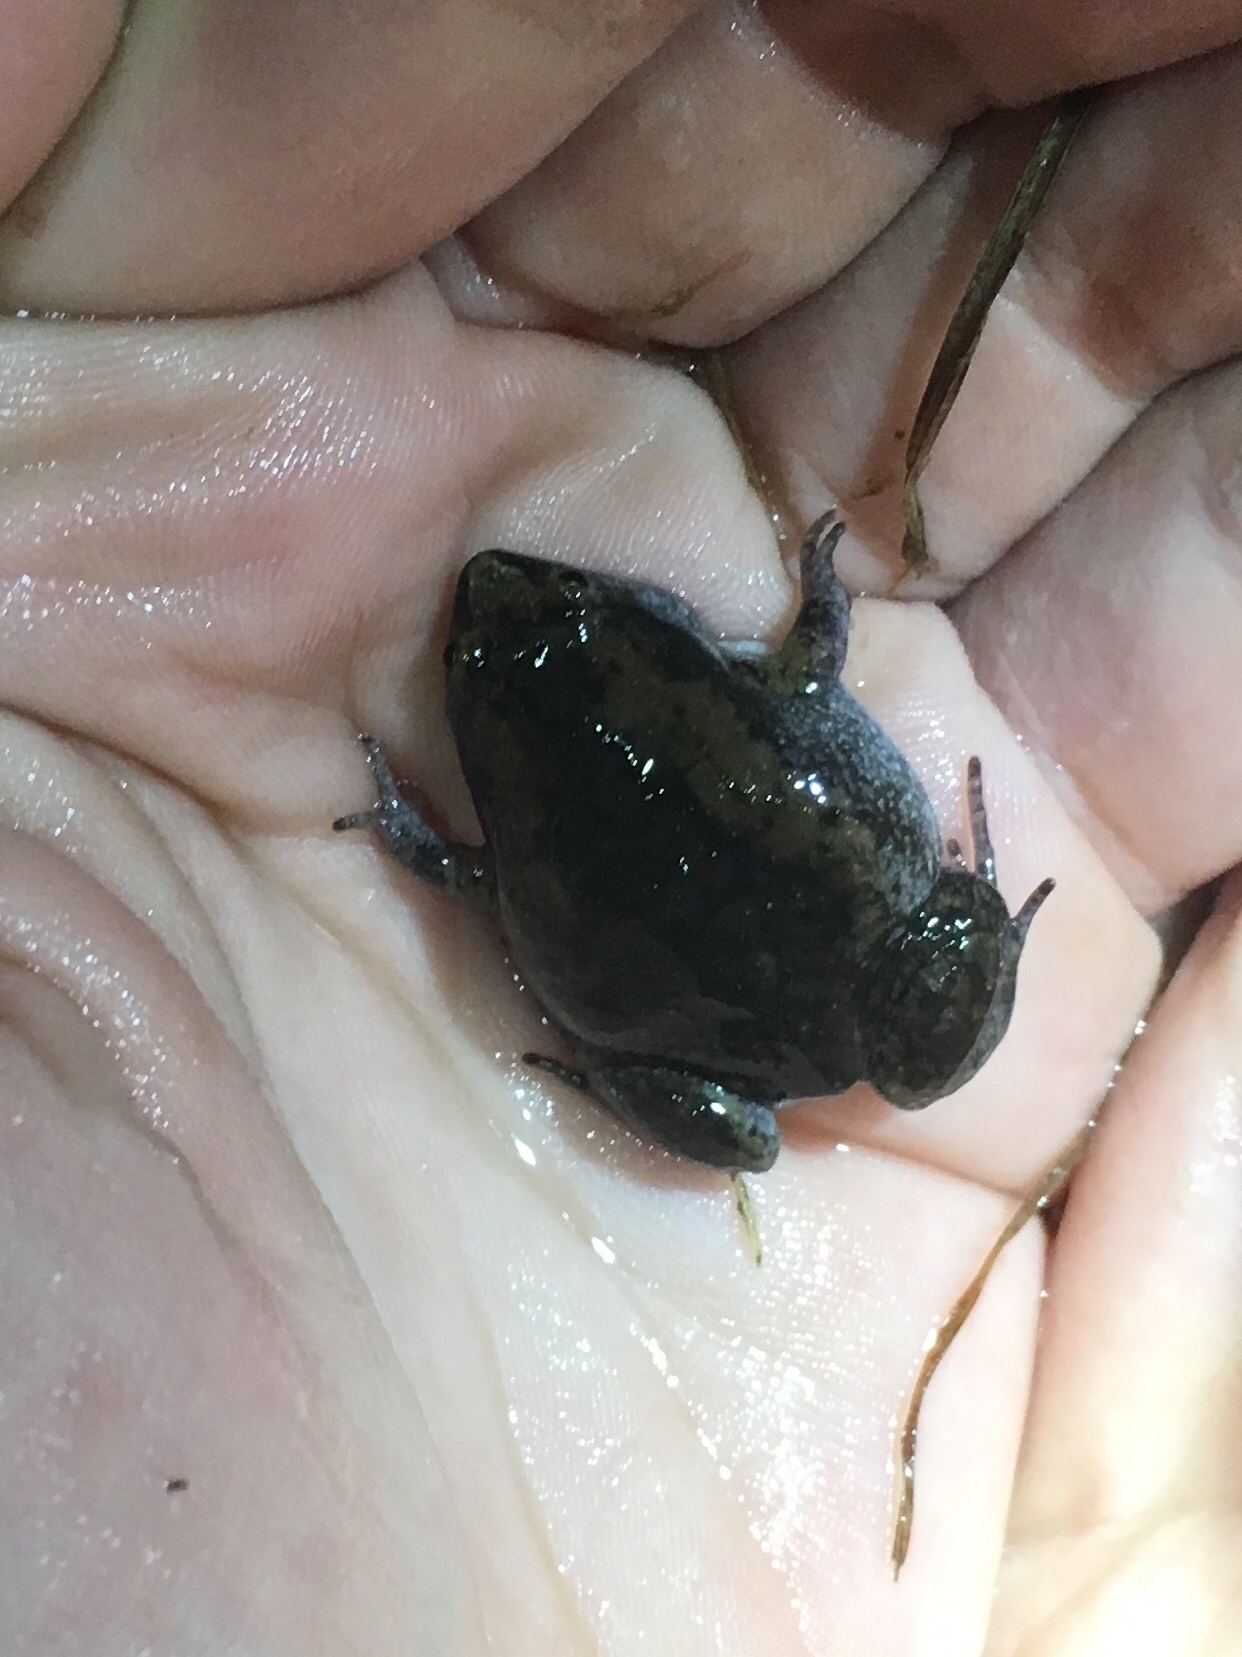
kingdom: Animalia
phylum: Chordata
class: Amphibia
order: Anura
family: Microhylidae
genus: Gastrophryne
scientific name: Gastrophryne carolinensis
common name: Eastern narrowmouth toad
